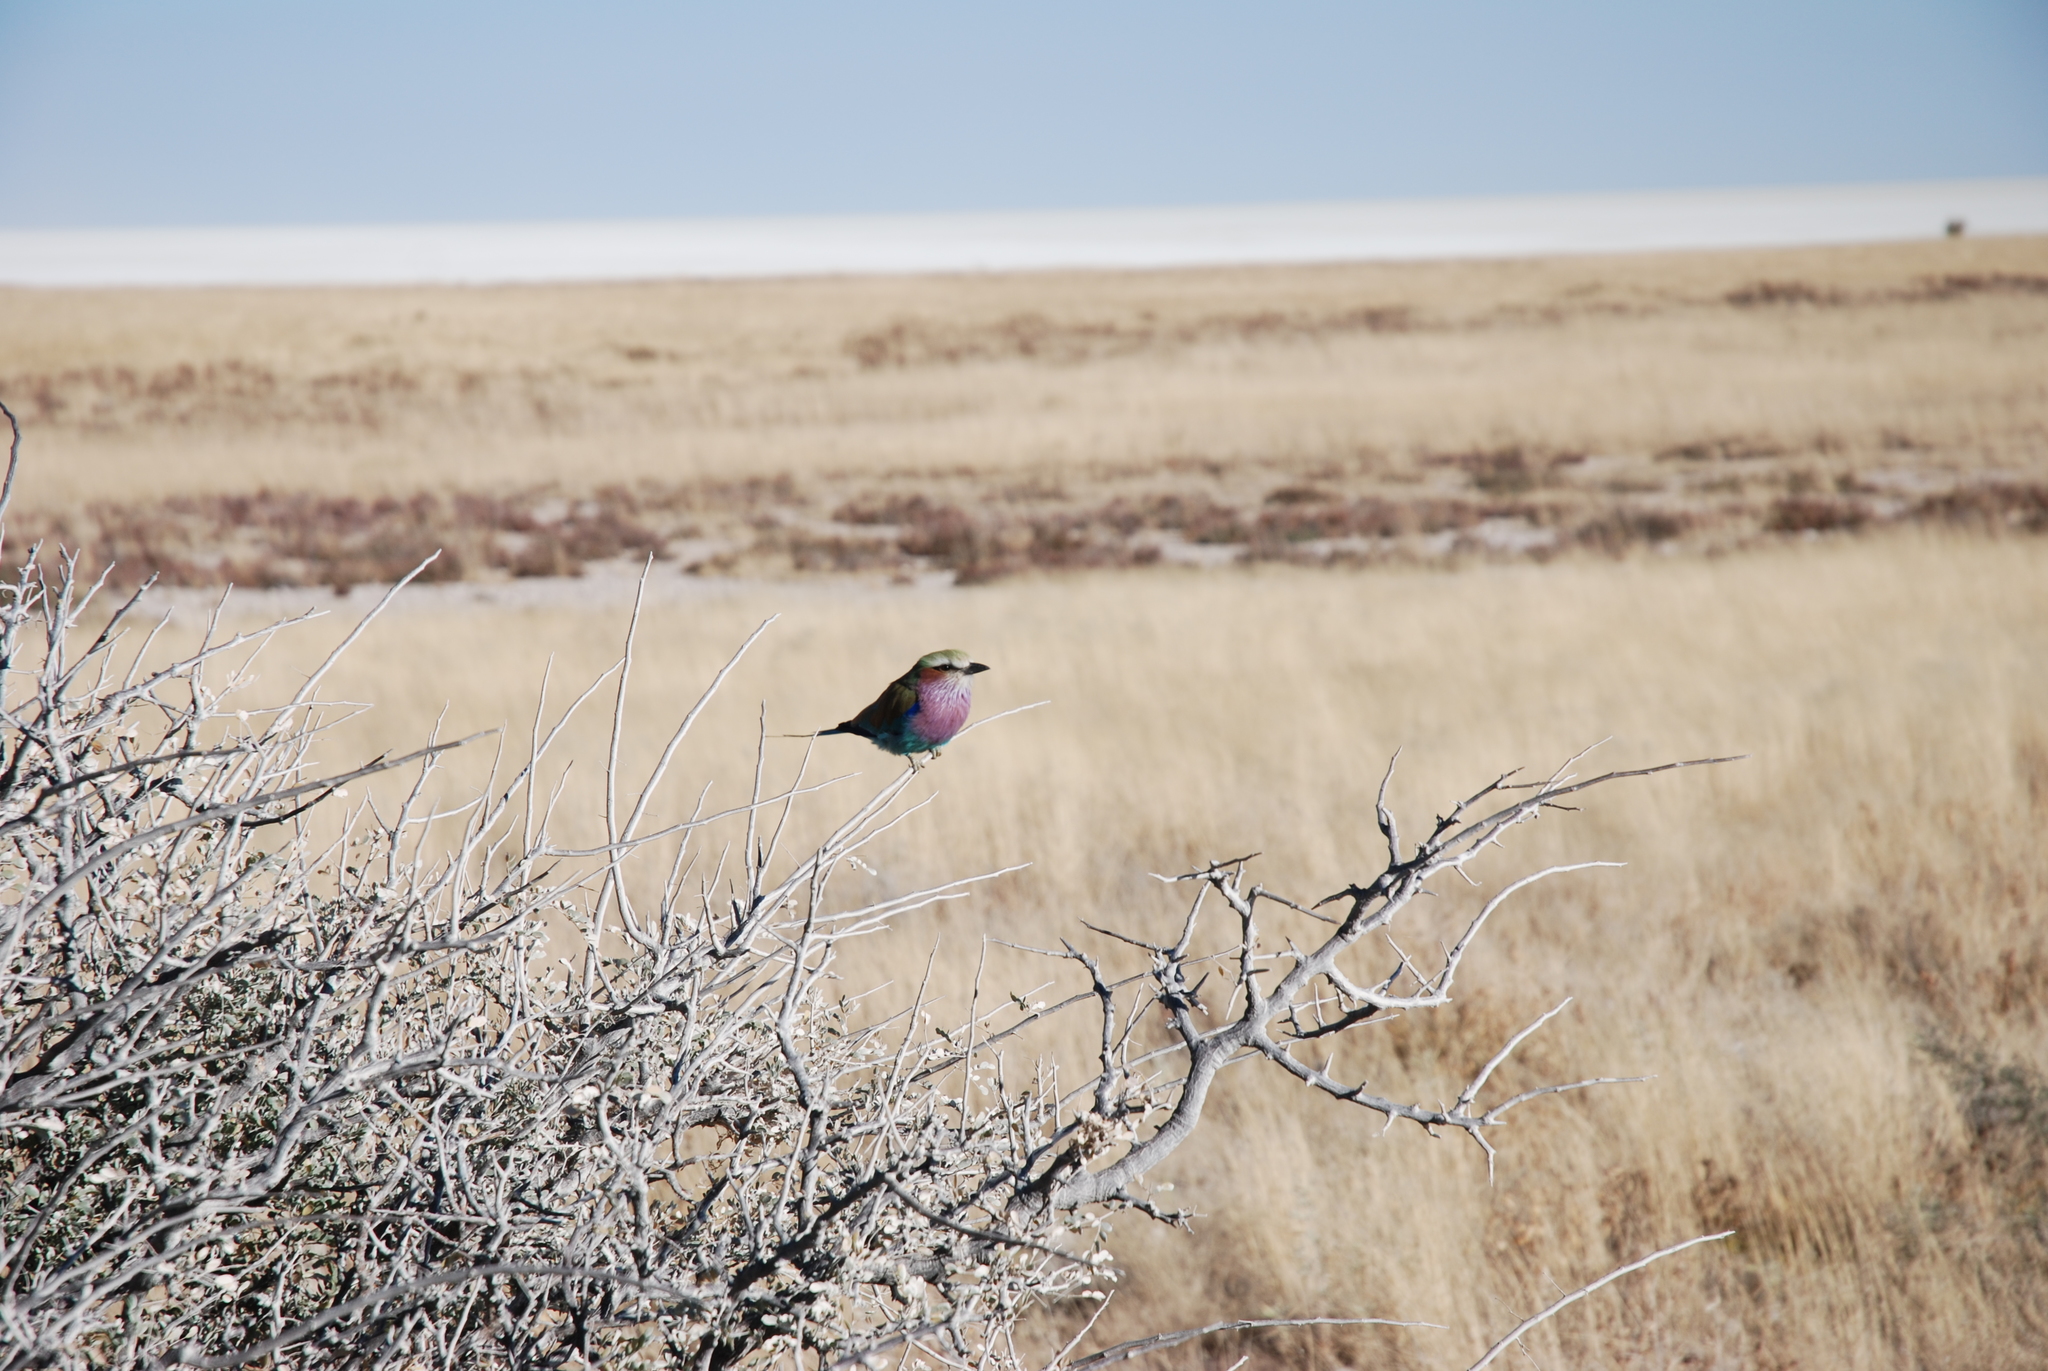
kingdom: Animalia
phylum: Chordata
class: Aves
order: Coraciiformes
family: Coraciidae
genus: Coracias
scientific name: Coracias caudatus
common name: Lilac-breasted roller
